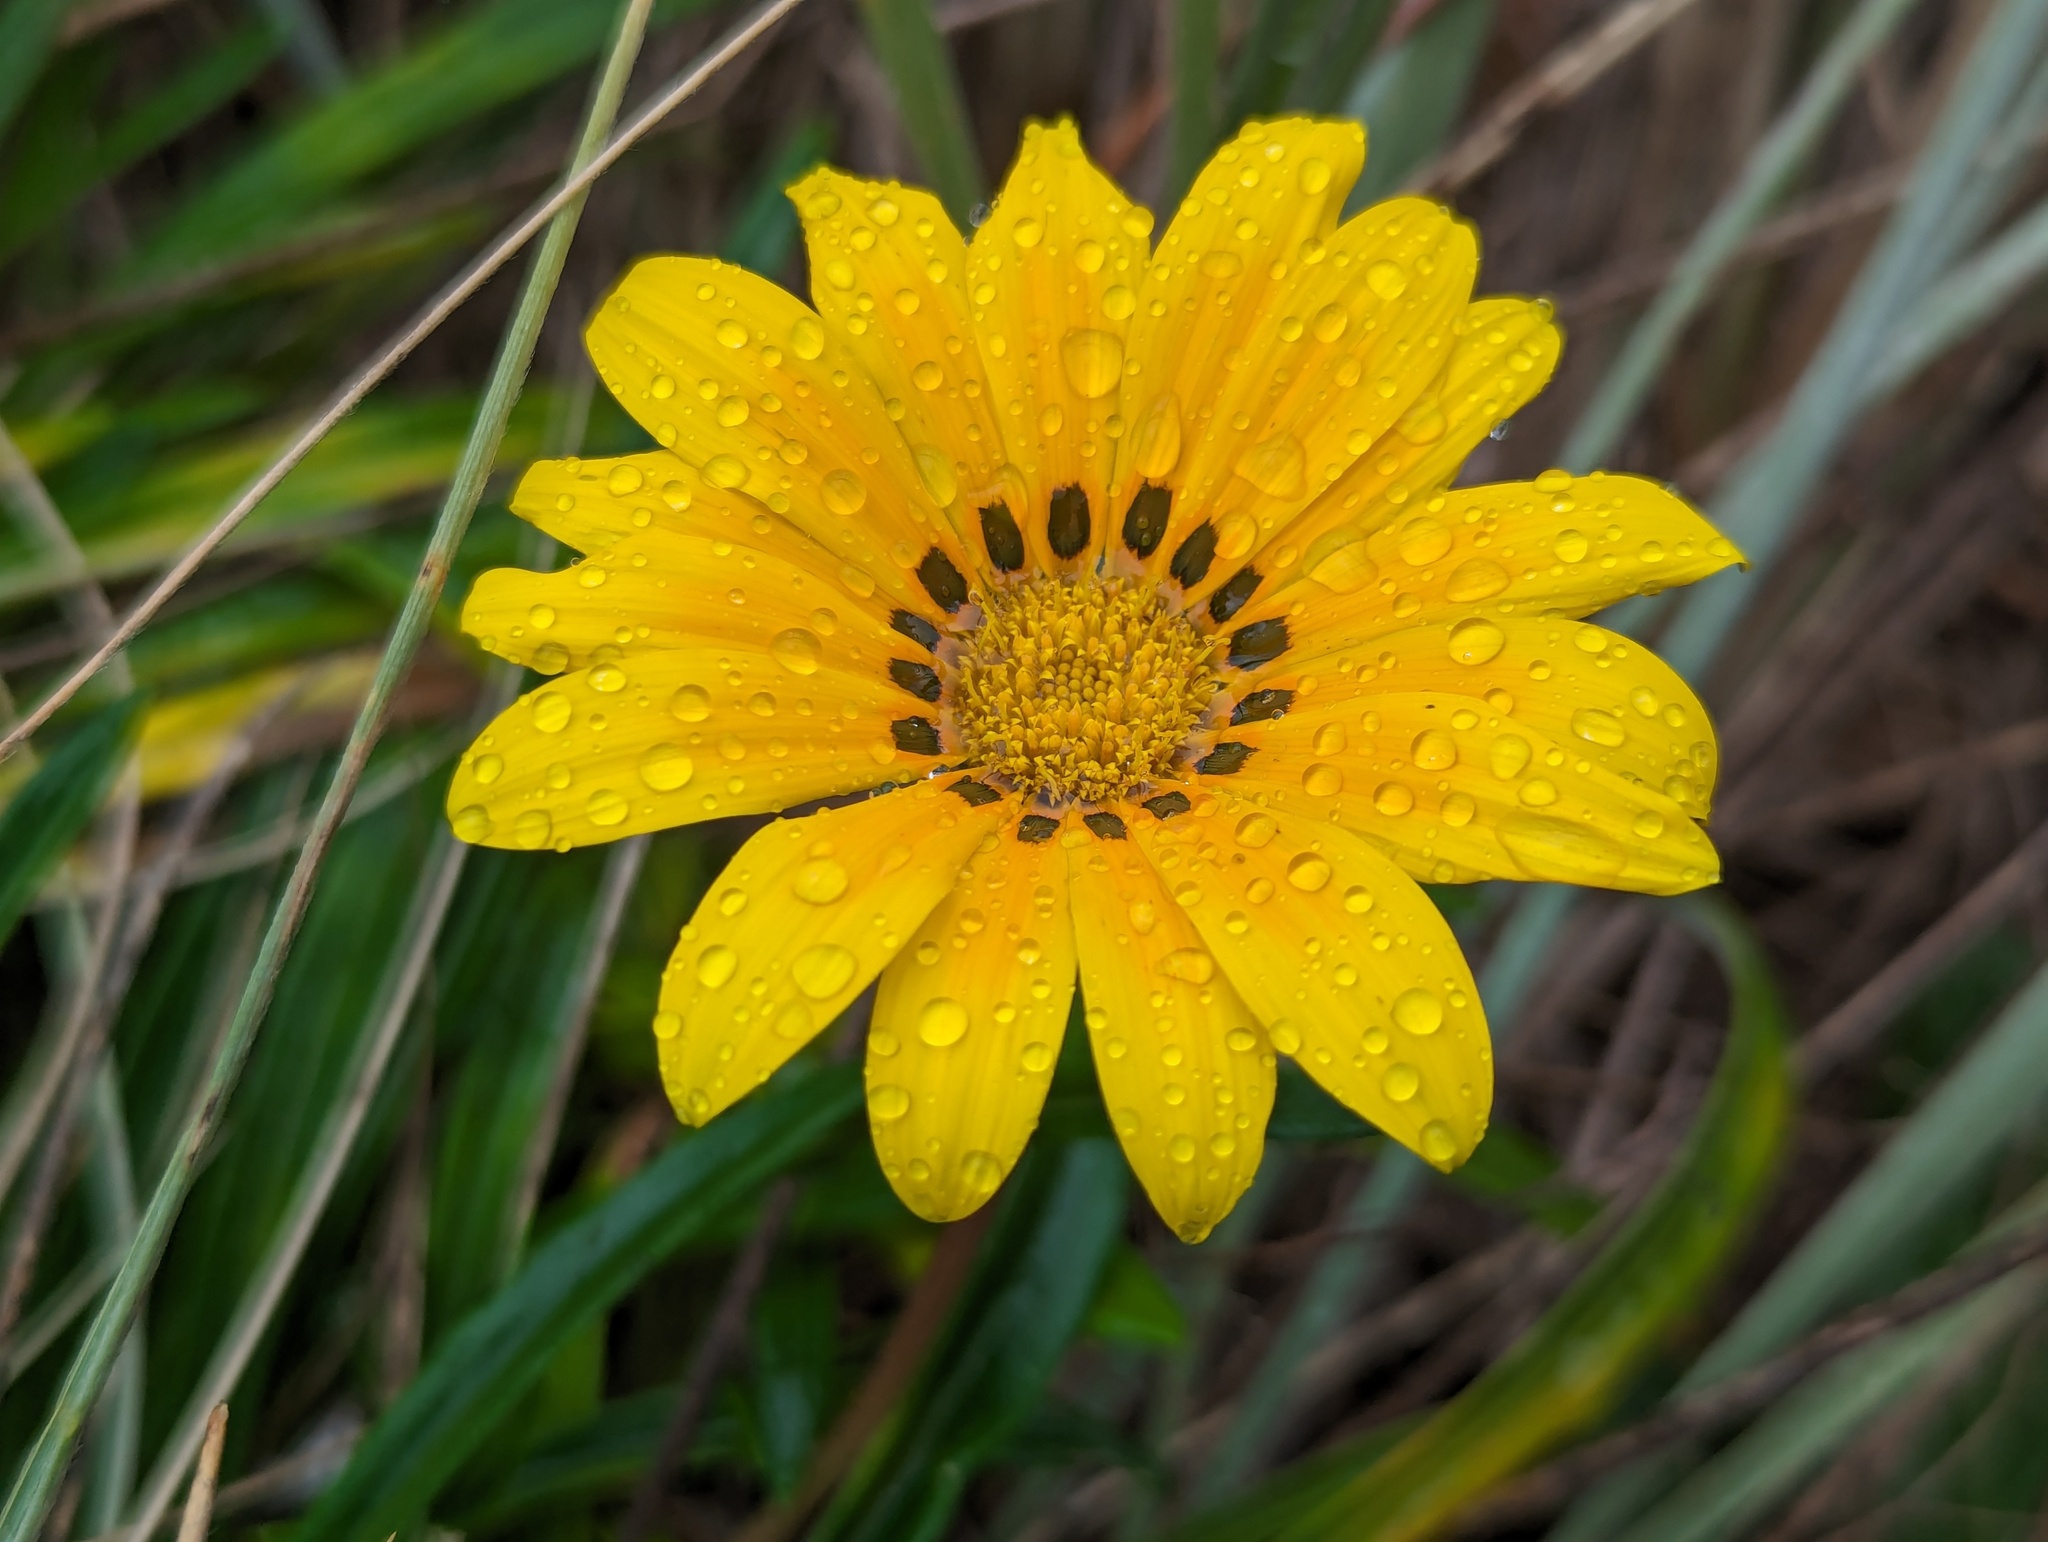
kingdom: Plantae
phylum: Tracheophyta
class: Magnoliopsida
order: Asterales
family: Asteraceae
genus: Gazania
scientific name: Gazania splendens
